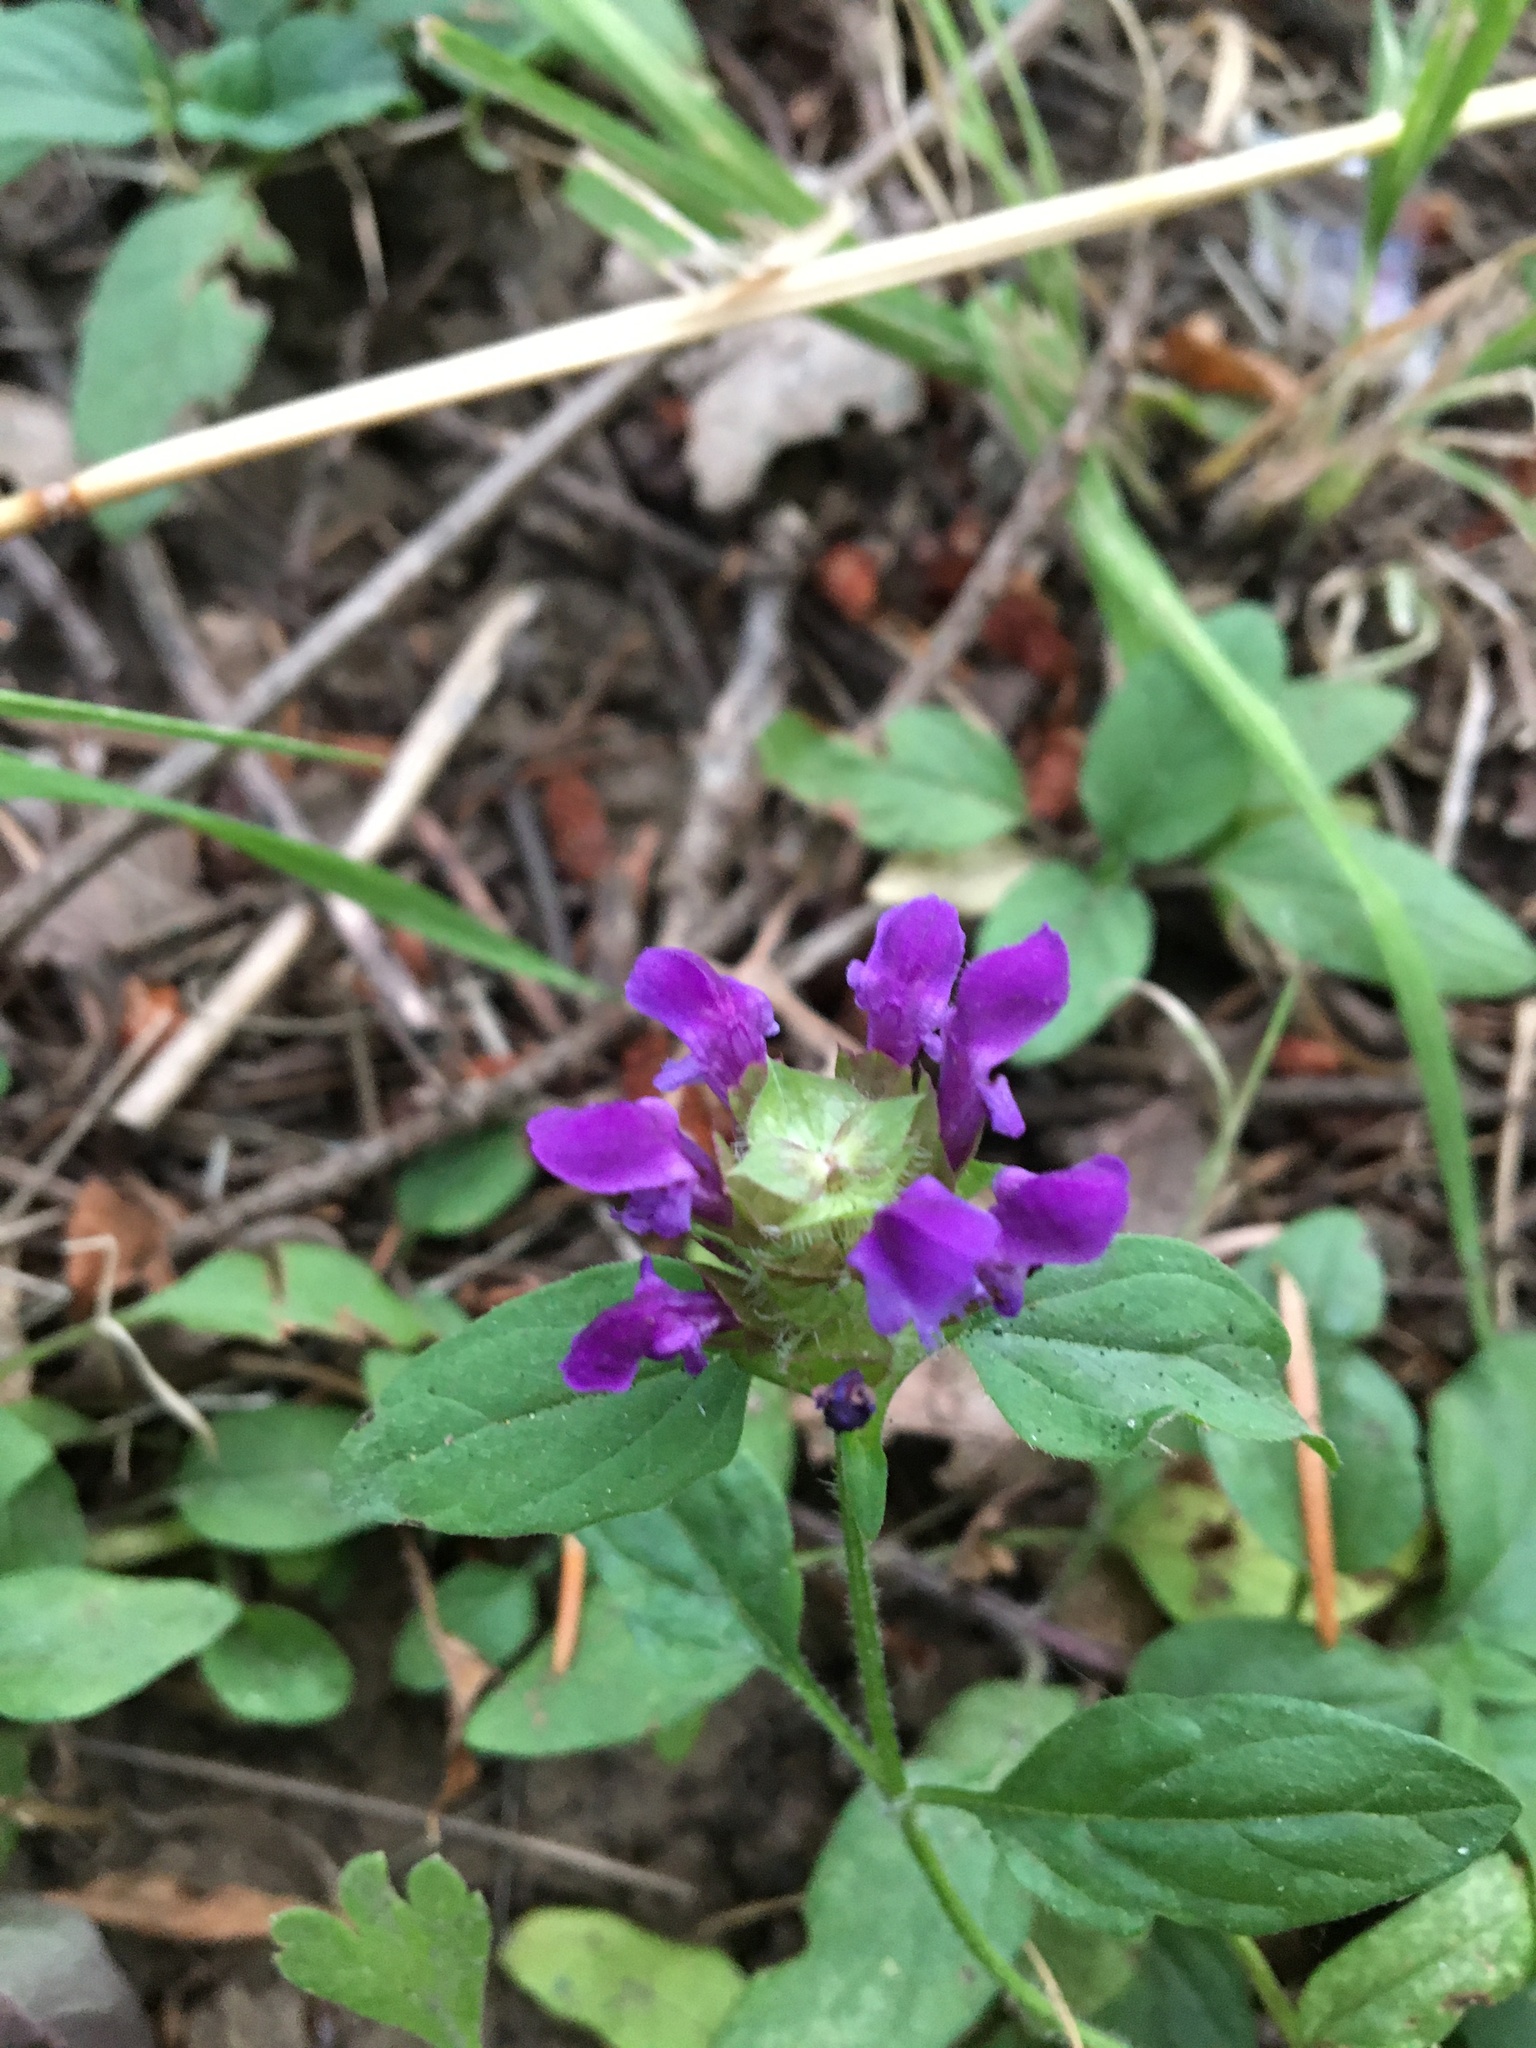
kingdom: Plantae
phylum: Tracheophyta
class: Magnoliopsida
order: Lamiales
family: Lamiaceae
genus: Prunella
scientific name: Prunella vulgaris
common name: Heal-all
